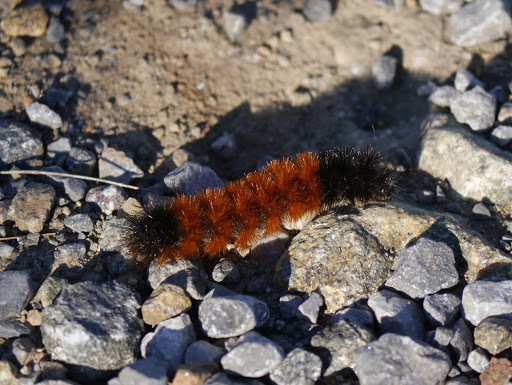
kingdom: Animalia
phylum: Arthropoda
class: Insecta
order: Lepidoptera
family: Erebidae
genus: Pyrrharctia
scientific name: Pyrrharctia isabella
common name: Isabella tiger moth
